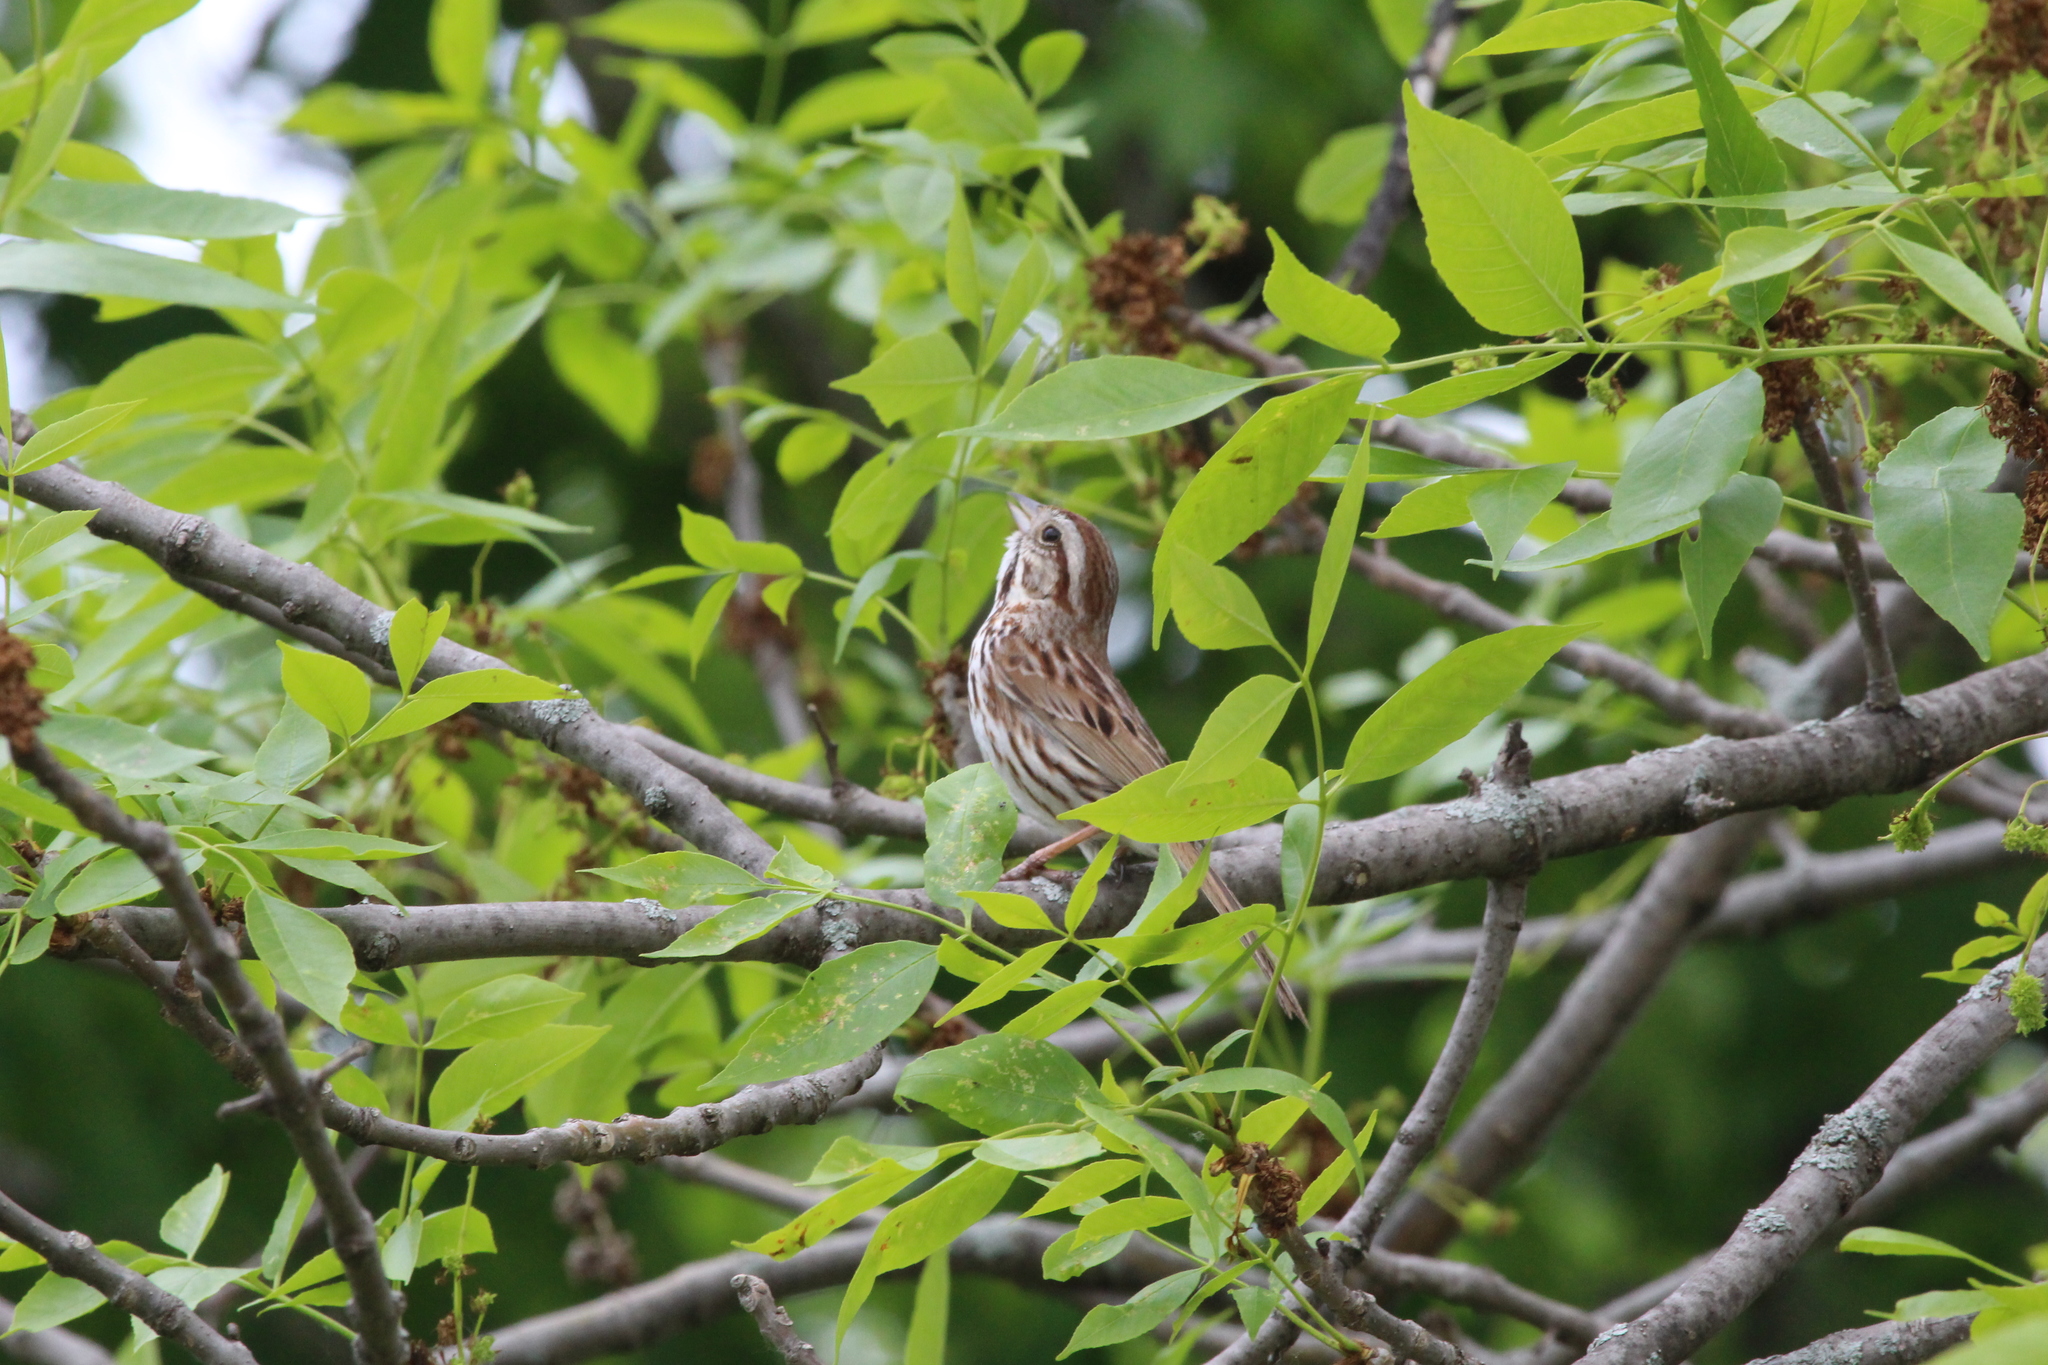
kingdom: Animalia
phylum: Chordata
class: Aves
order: Passeriformes
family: Passerellidae
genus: Melospiza
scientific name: Melospiza melodia
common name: Song sparrow
